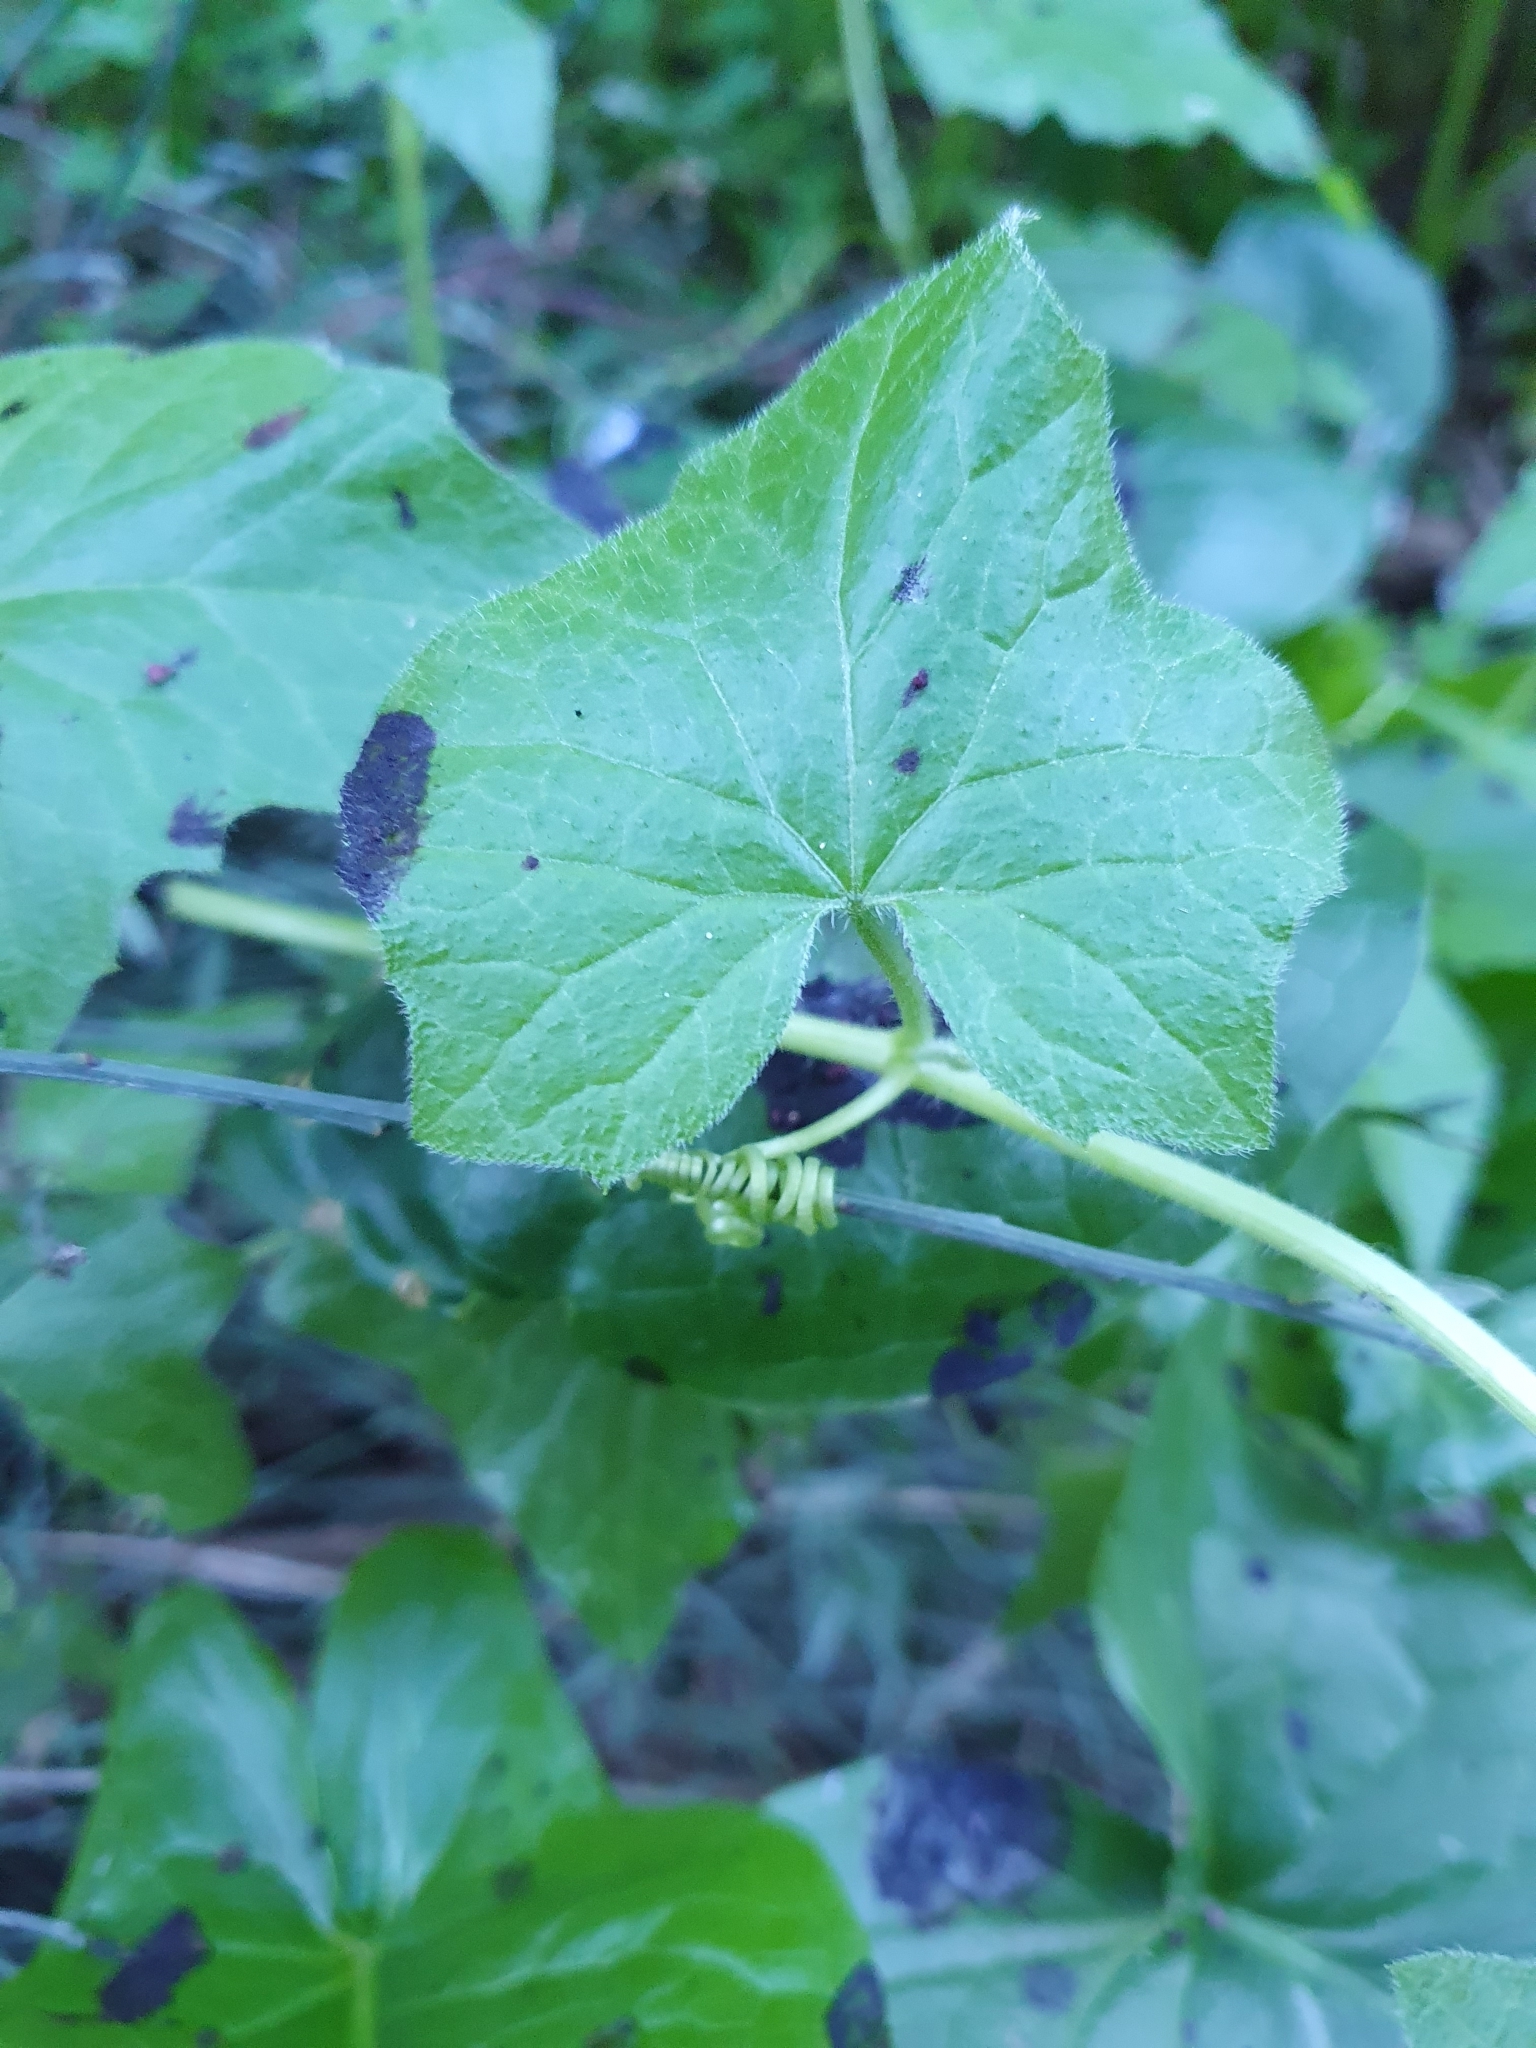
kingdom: Plantae
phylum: Tracheophyta
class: Magnoliopsida
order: Cucurbitales
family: Cucurbitaceae
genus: Bryonia
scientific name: Bryonia cretica
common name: Cretan bryony
